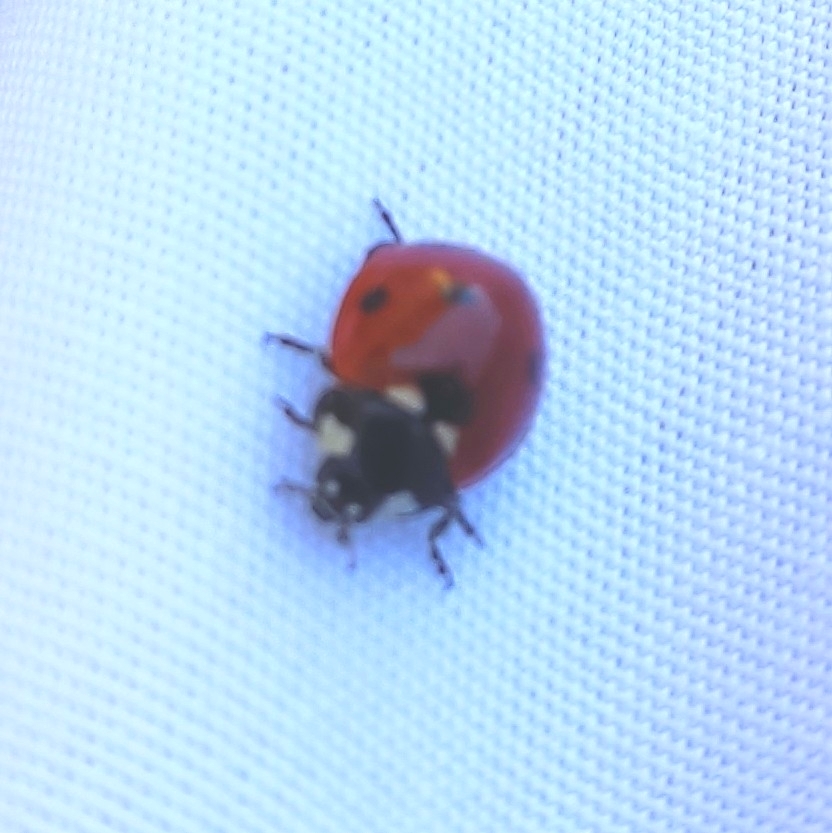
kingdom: Animalia
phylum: Arthropoda
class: Insecta
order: Coleoptera
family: Coccinellidae
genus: Coccinella
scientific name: Coccinella septempunctata
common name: Sevenspotted lady beetle
